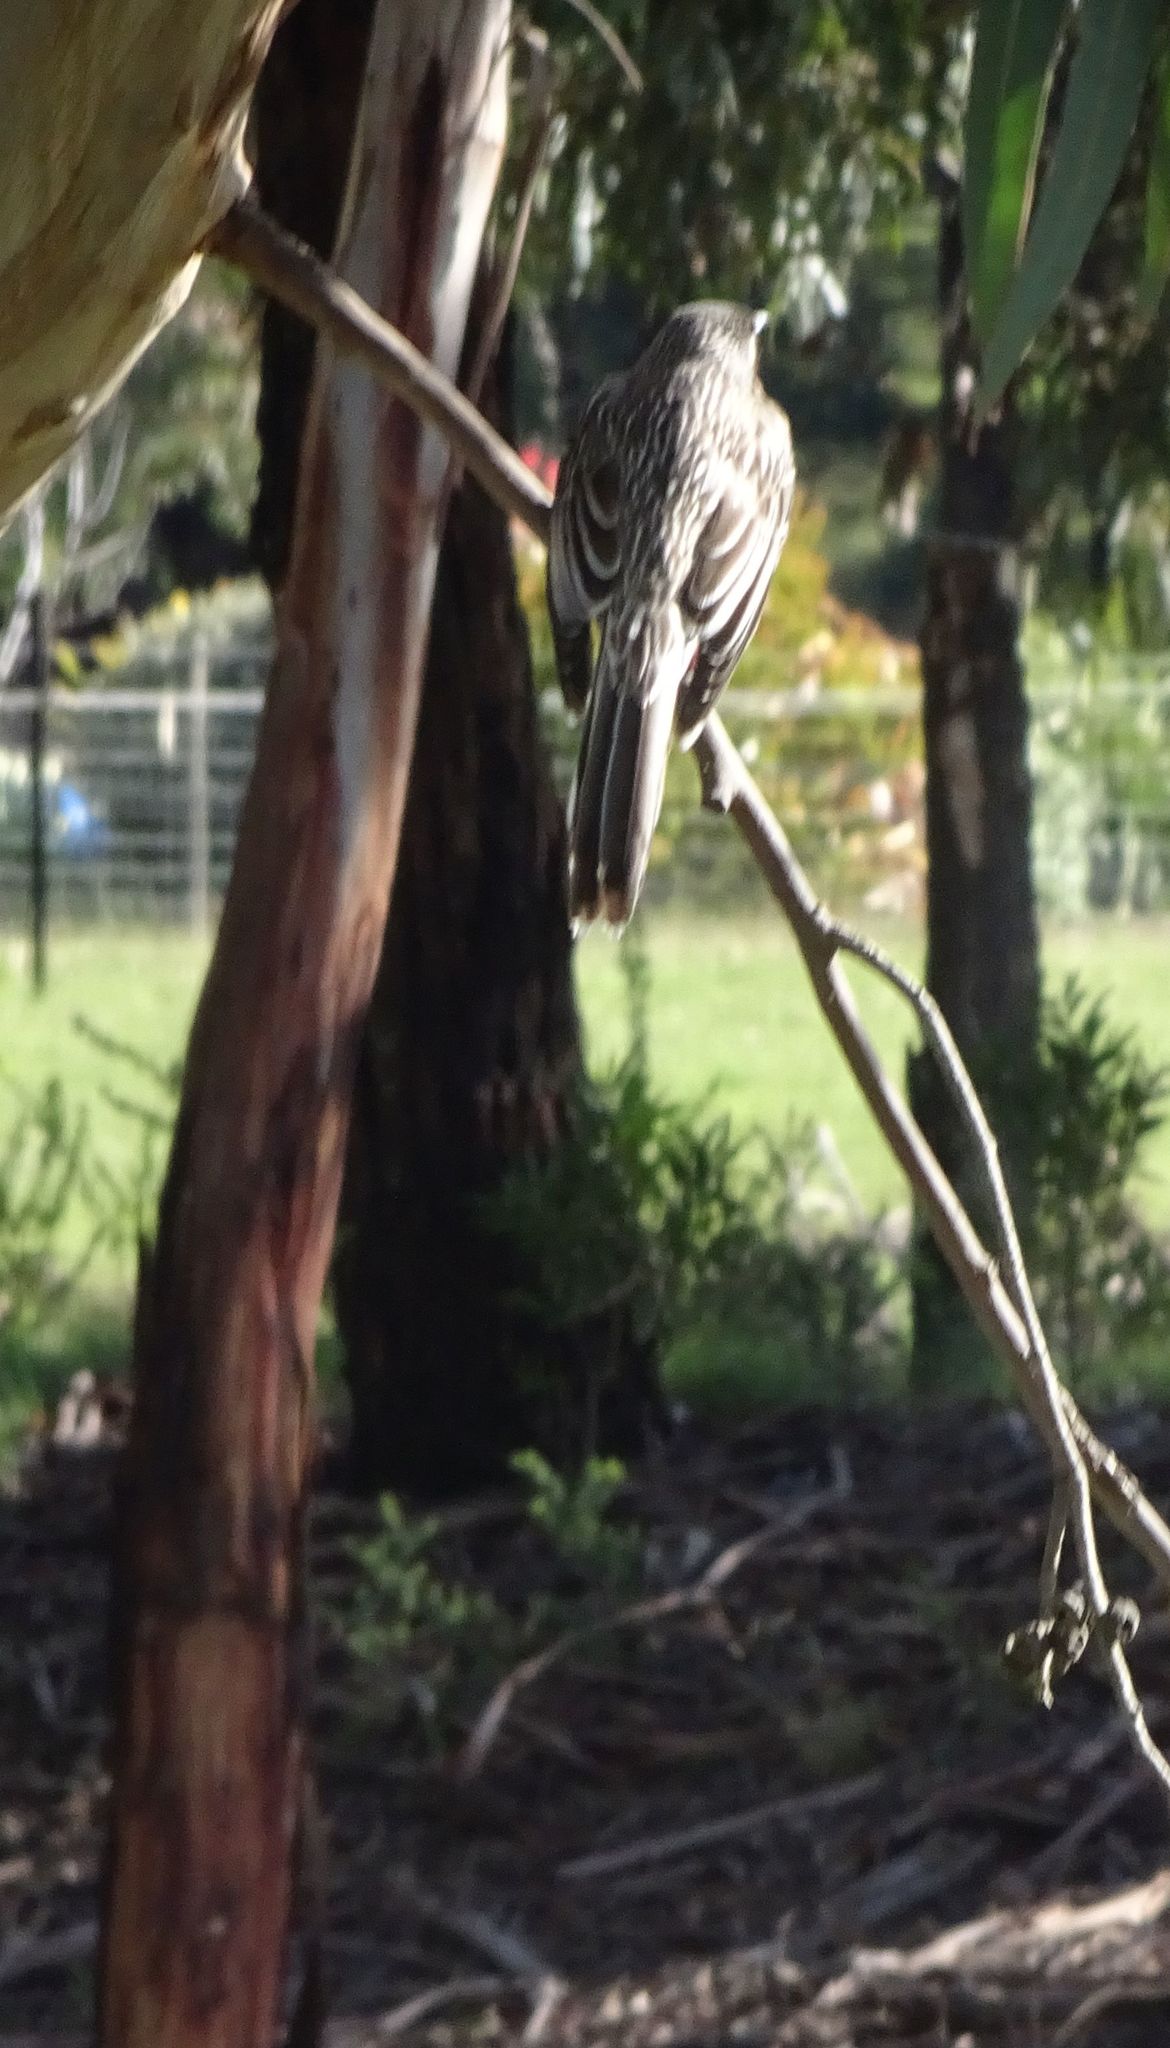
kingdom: Animalia
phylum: Chordata
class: Aves
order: Passeriformes
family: Meliphagidae
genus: Anthochaera
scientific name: Anthochaera carunculata
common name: Red wattlebird
